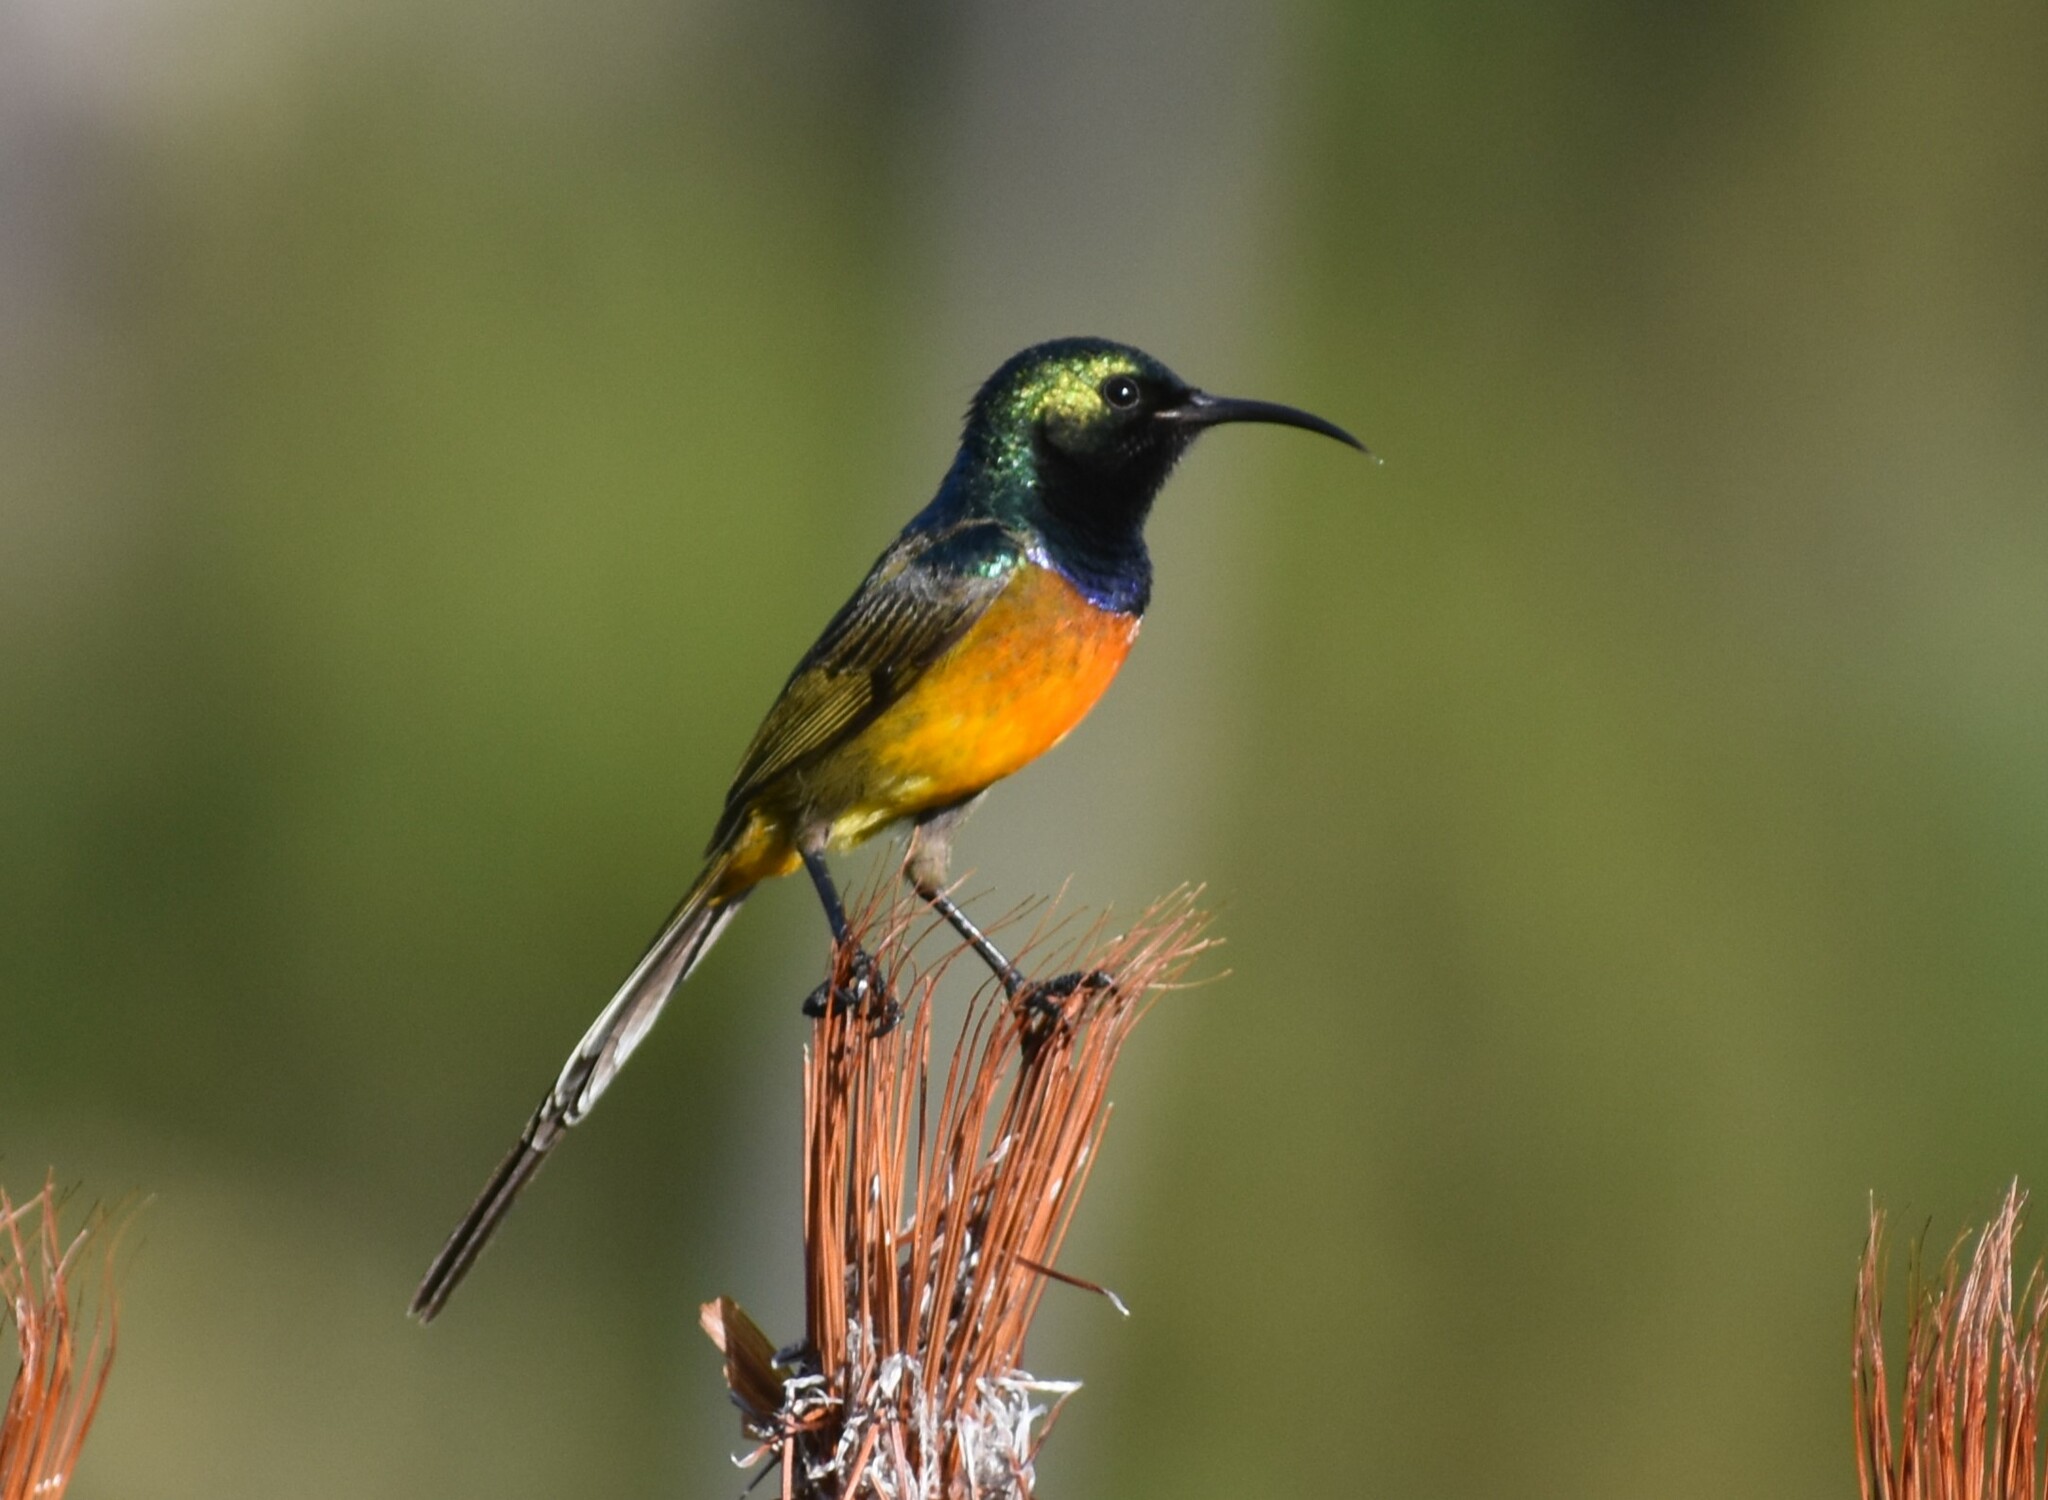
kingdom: Animalia
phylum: Chordata
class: Aves
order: Passeriformes
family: Nectariniidae
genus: Anthobaphes
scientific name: Anthobaphes violacea
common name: Orange-breasted sunbird
